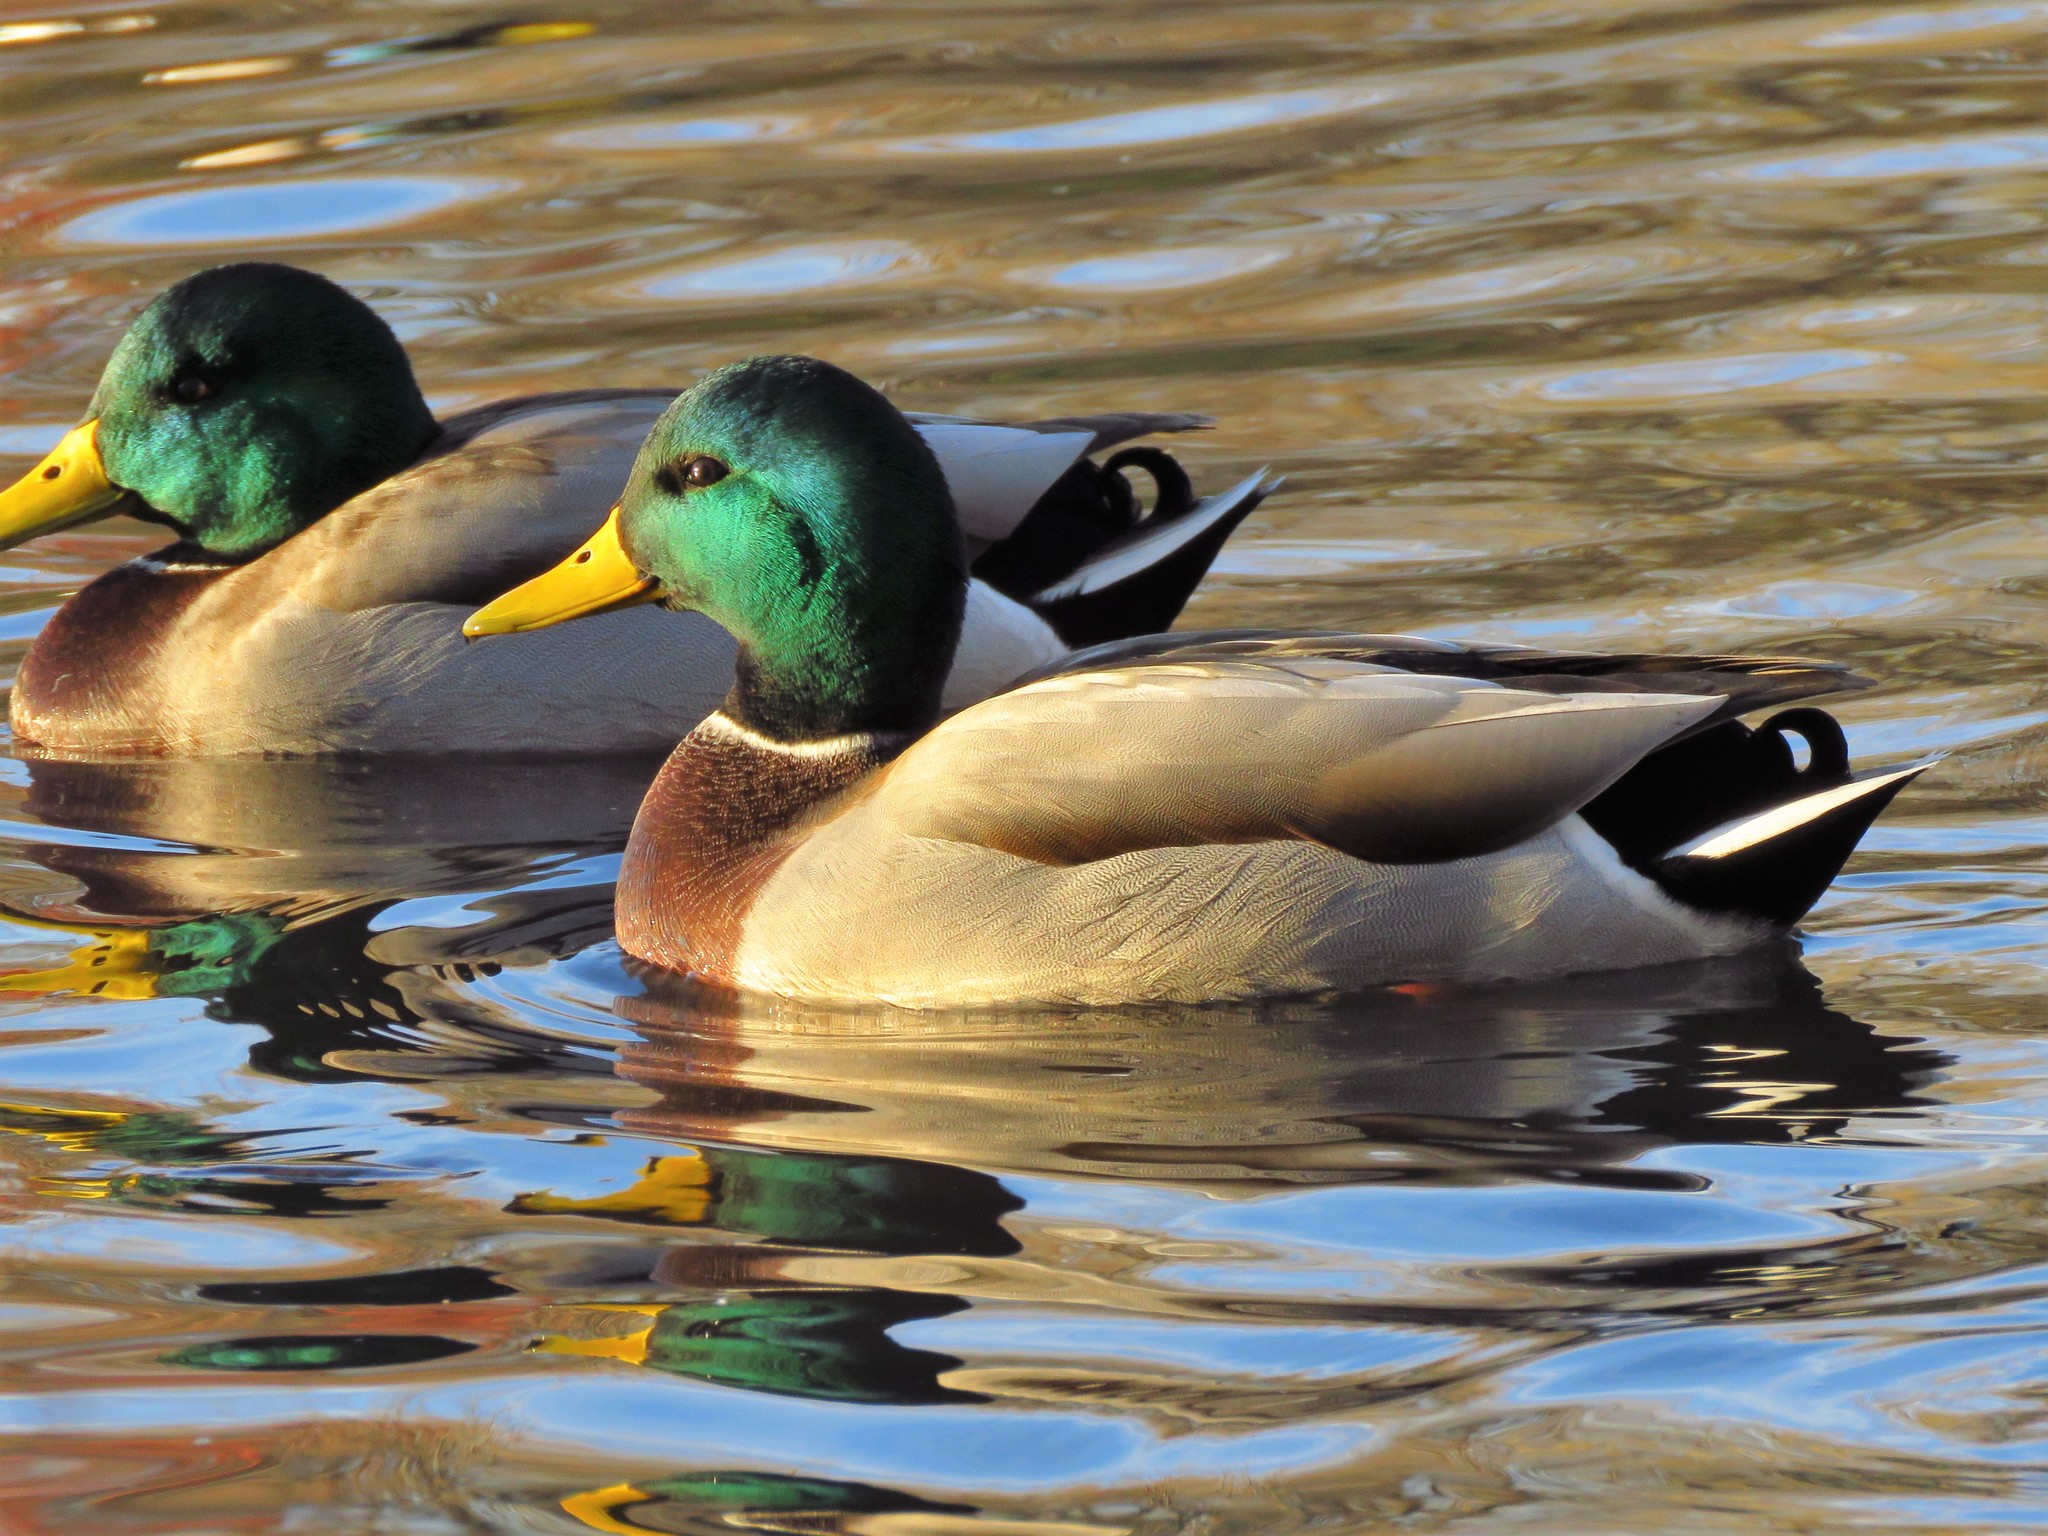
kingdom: Animalia
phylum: Chordata
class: Aves
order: Anseriformes
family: Anatidae
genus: Anas
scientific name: Anas platyrhynchos
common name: Mallard
